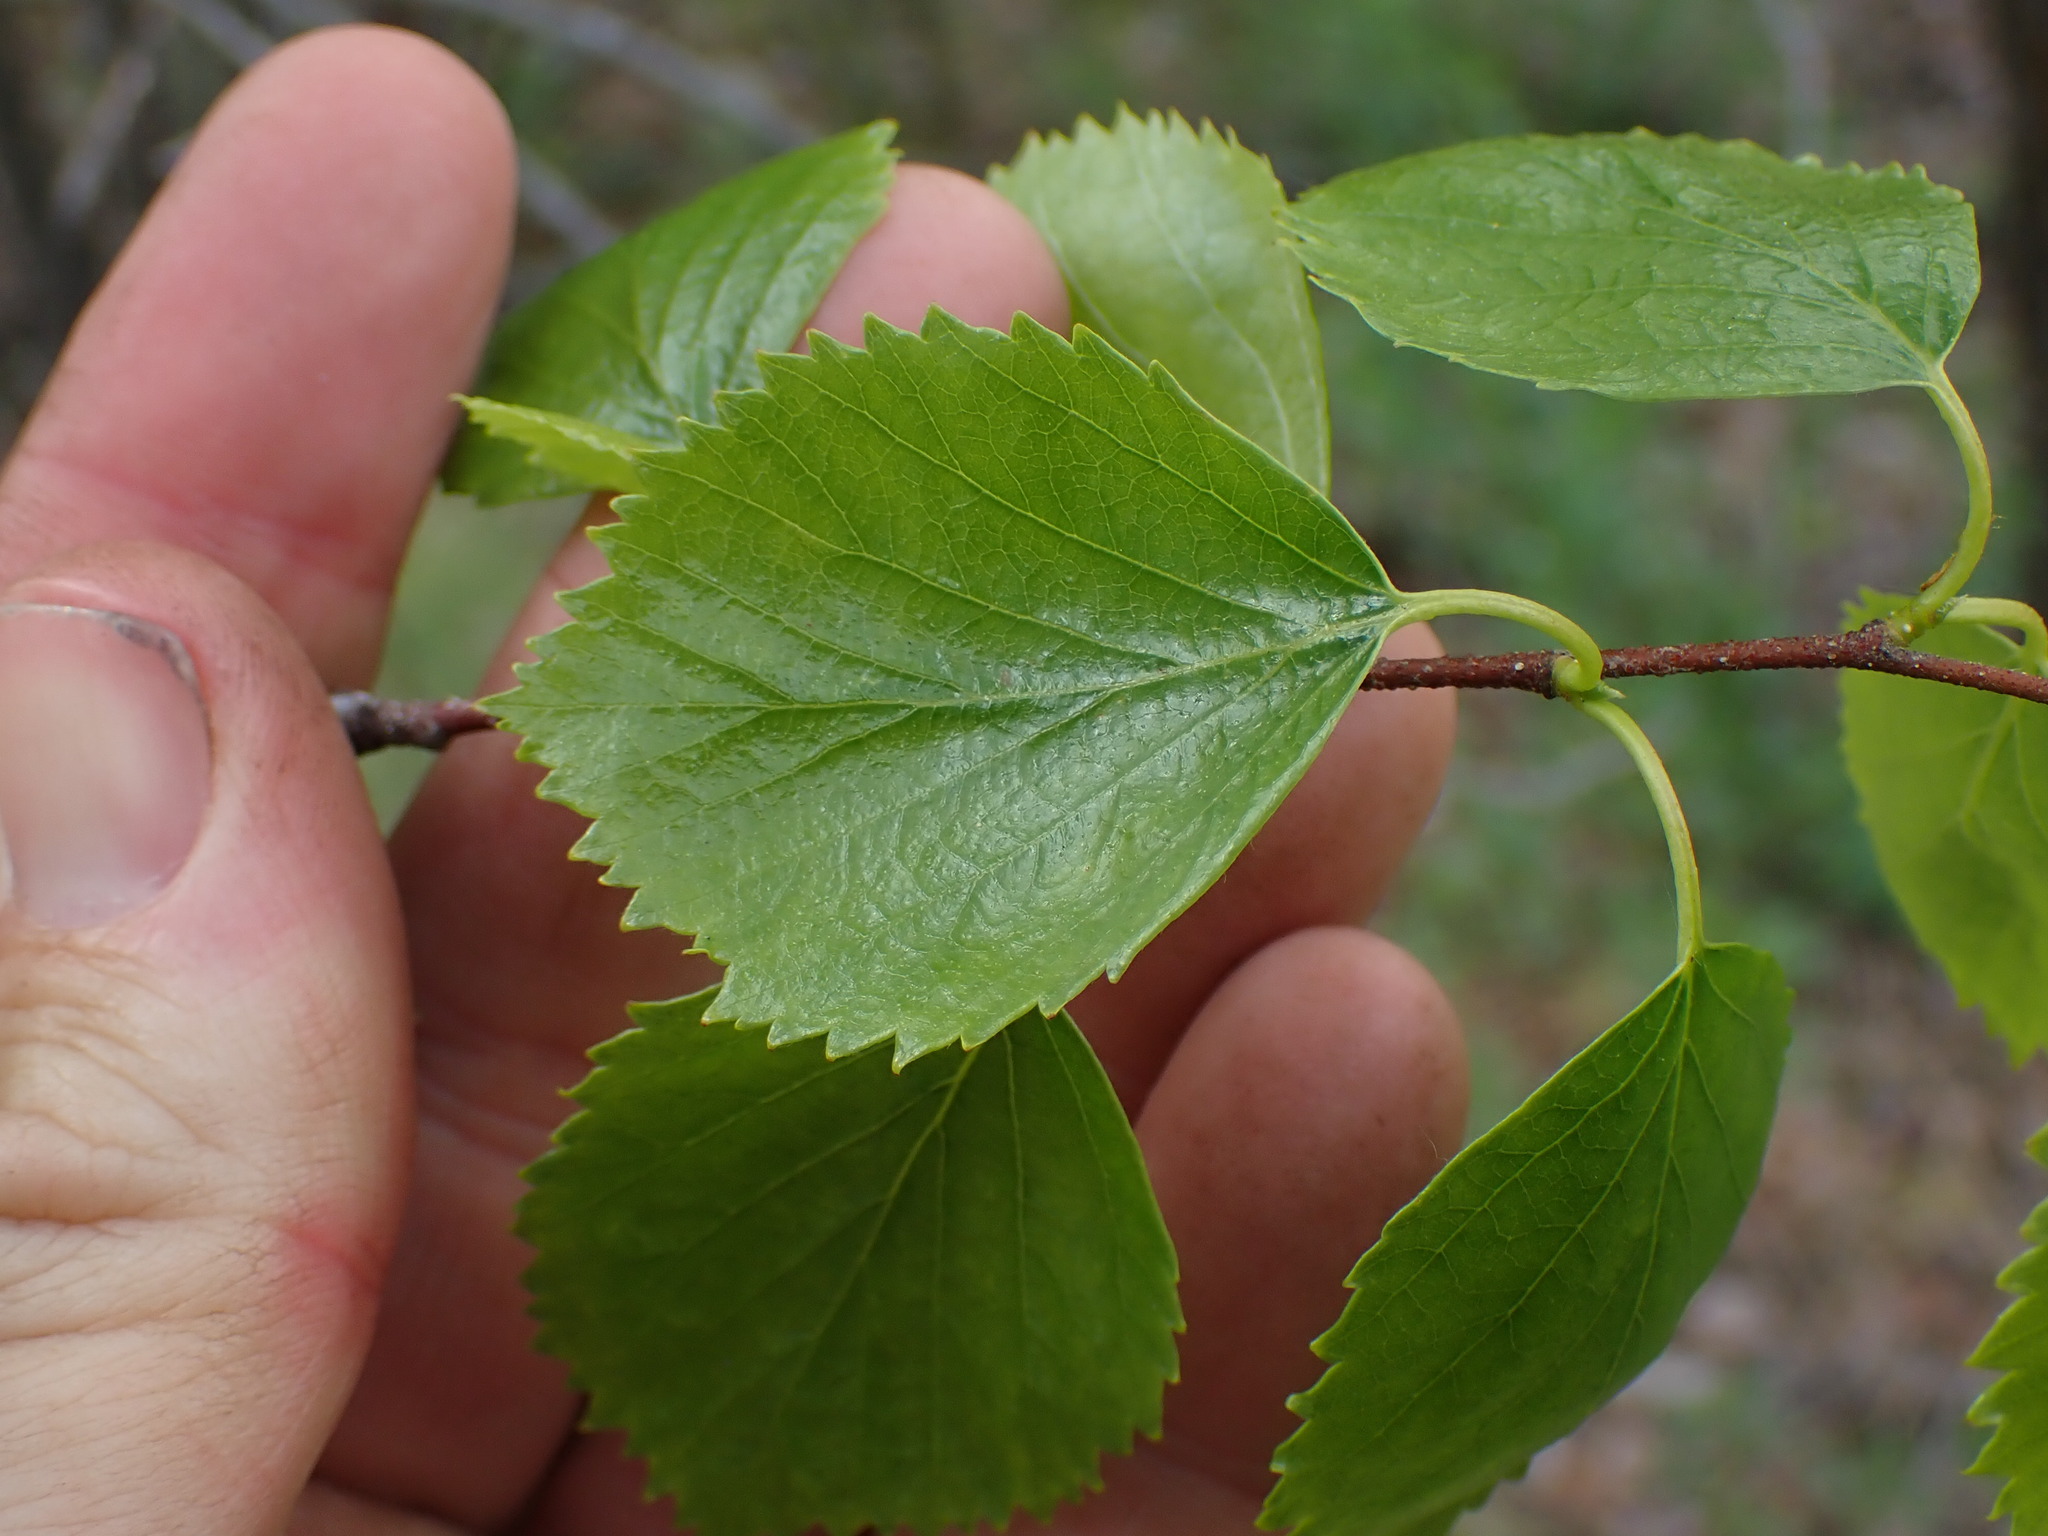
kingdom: Plantae
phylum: Tracheophyta
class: Magnoliopsida
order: Fagales
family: Betulaceae
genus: Betula
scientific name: Betula occidentalis
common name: River birch
